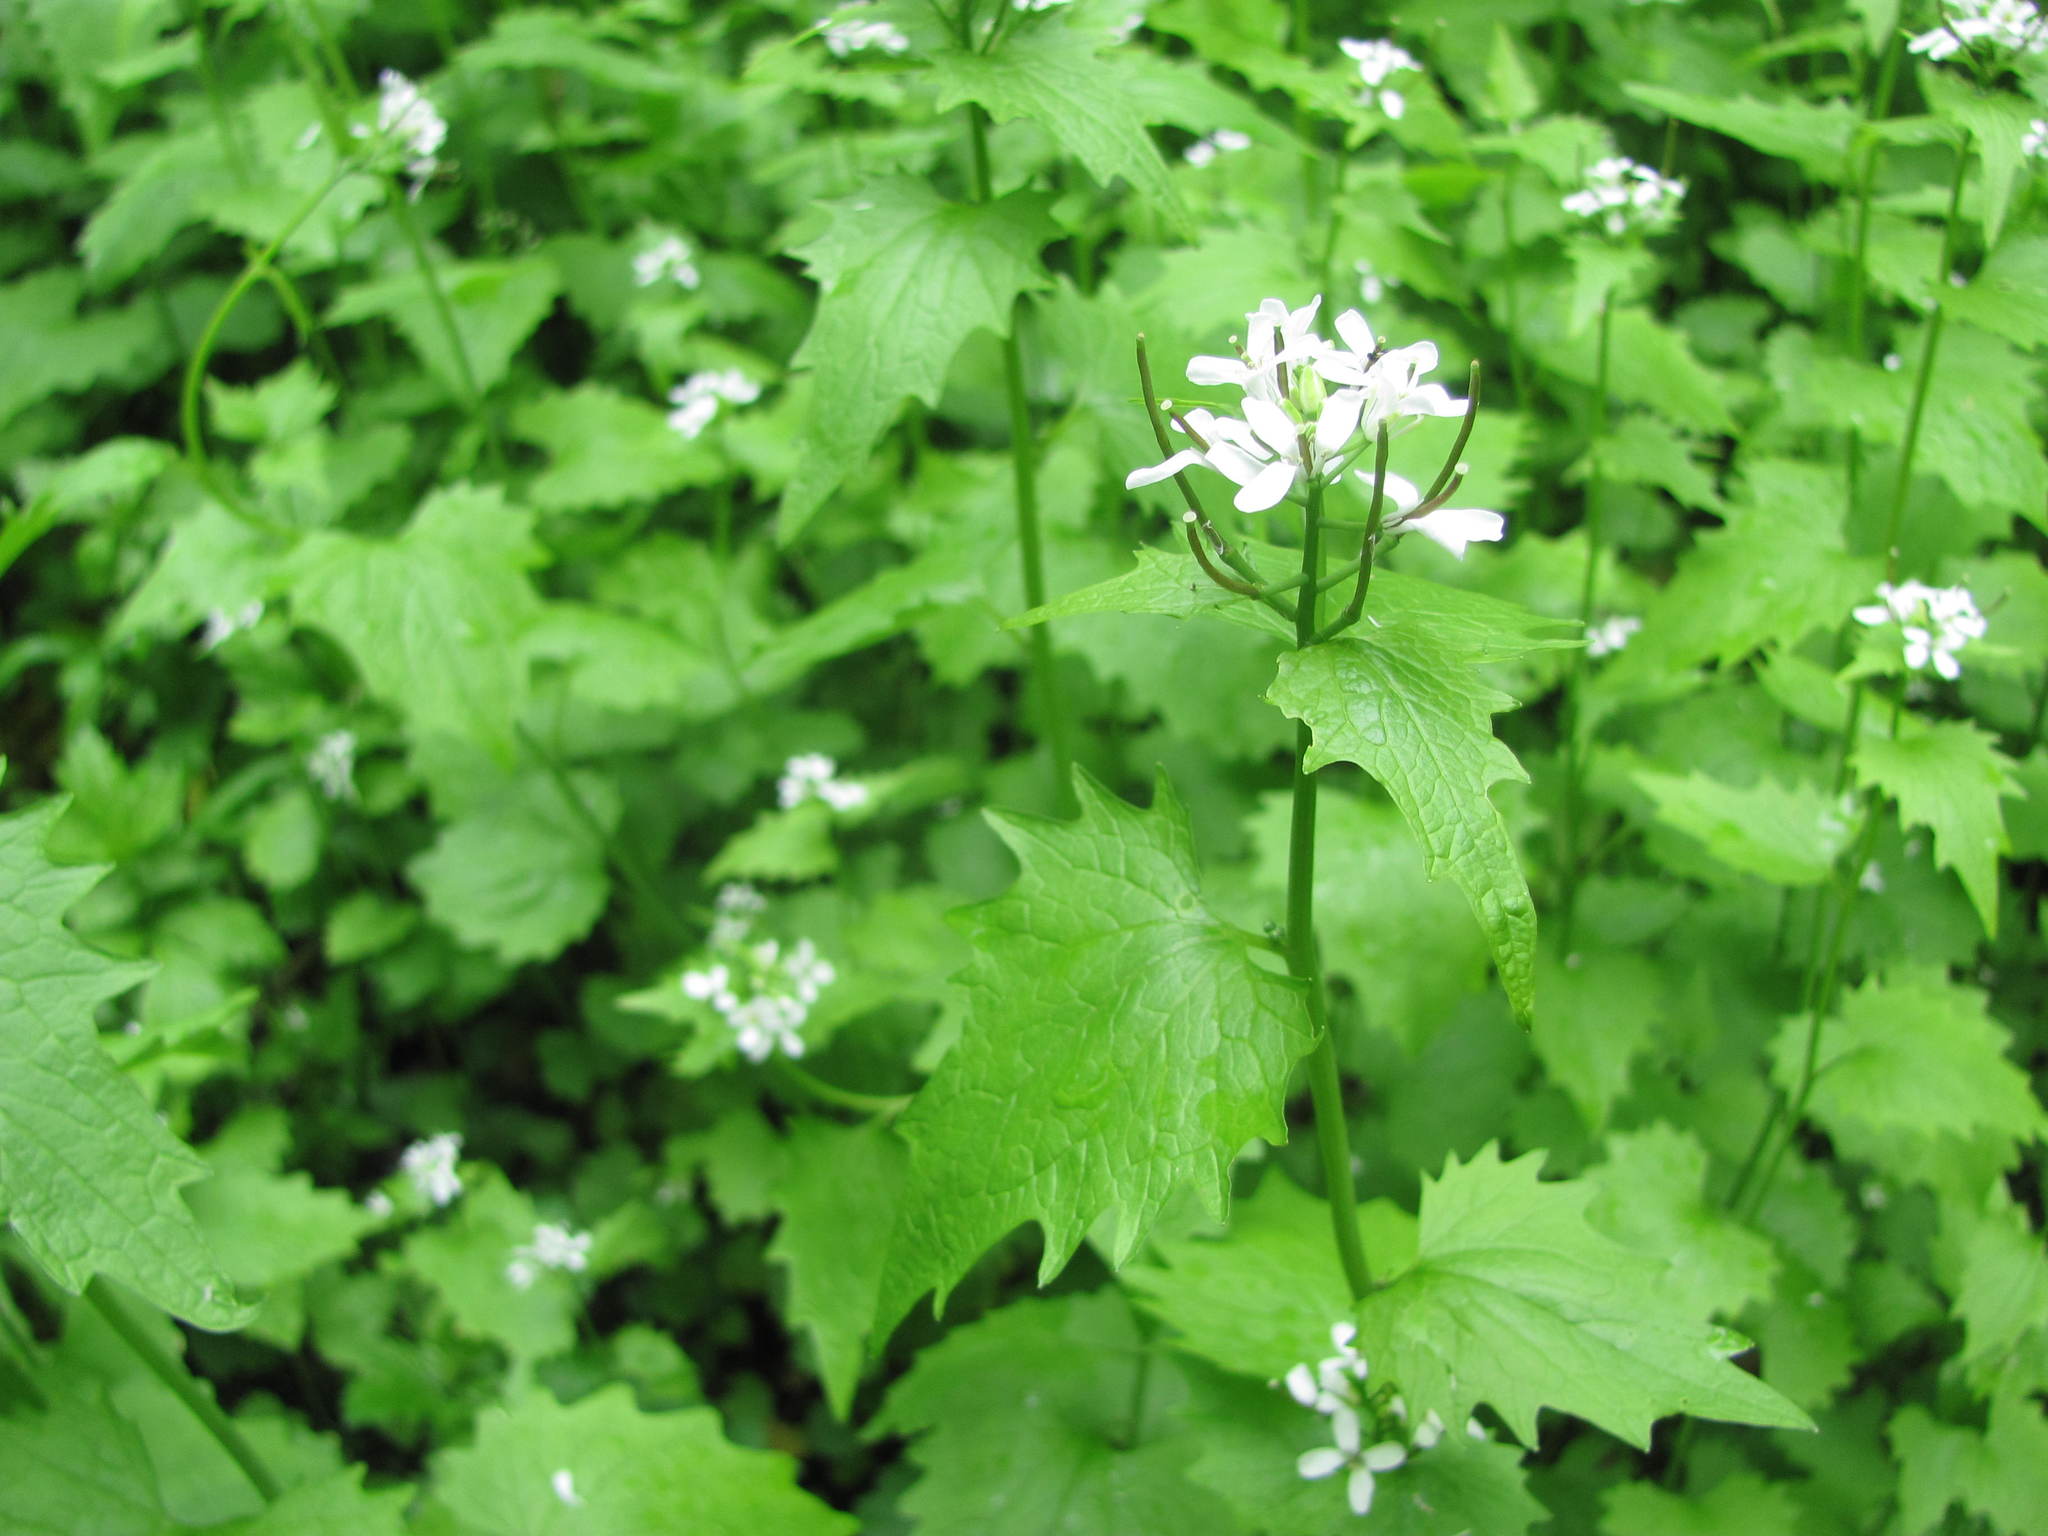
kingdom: Plantae
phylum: Tracheophyta
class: Magnoliopsida
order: Brassicales
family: Brassicaceae
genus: Alliaria
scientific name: Alliaria petiolata
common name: Garlic mustard
